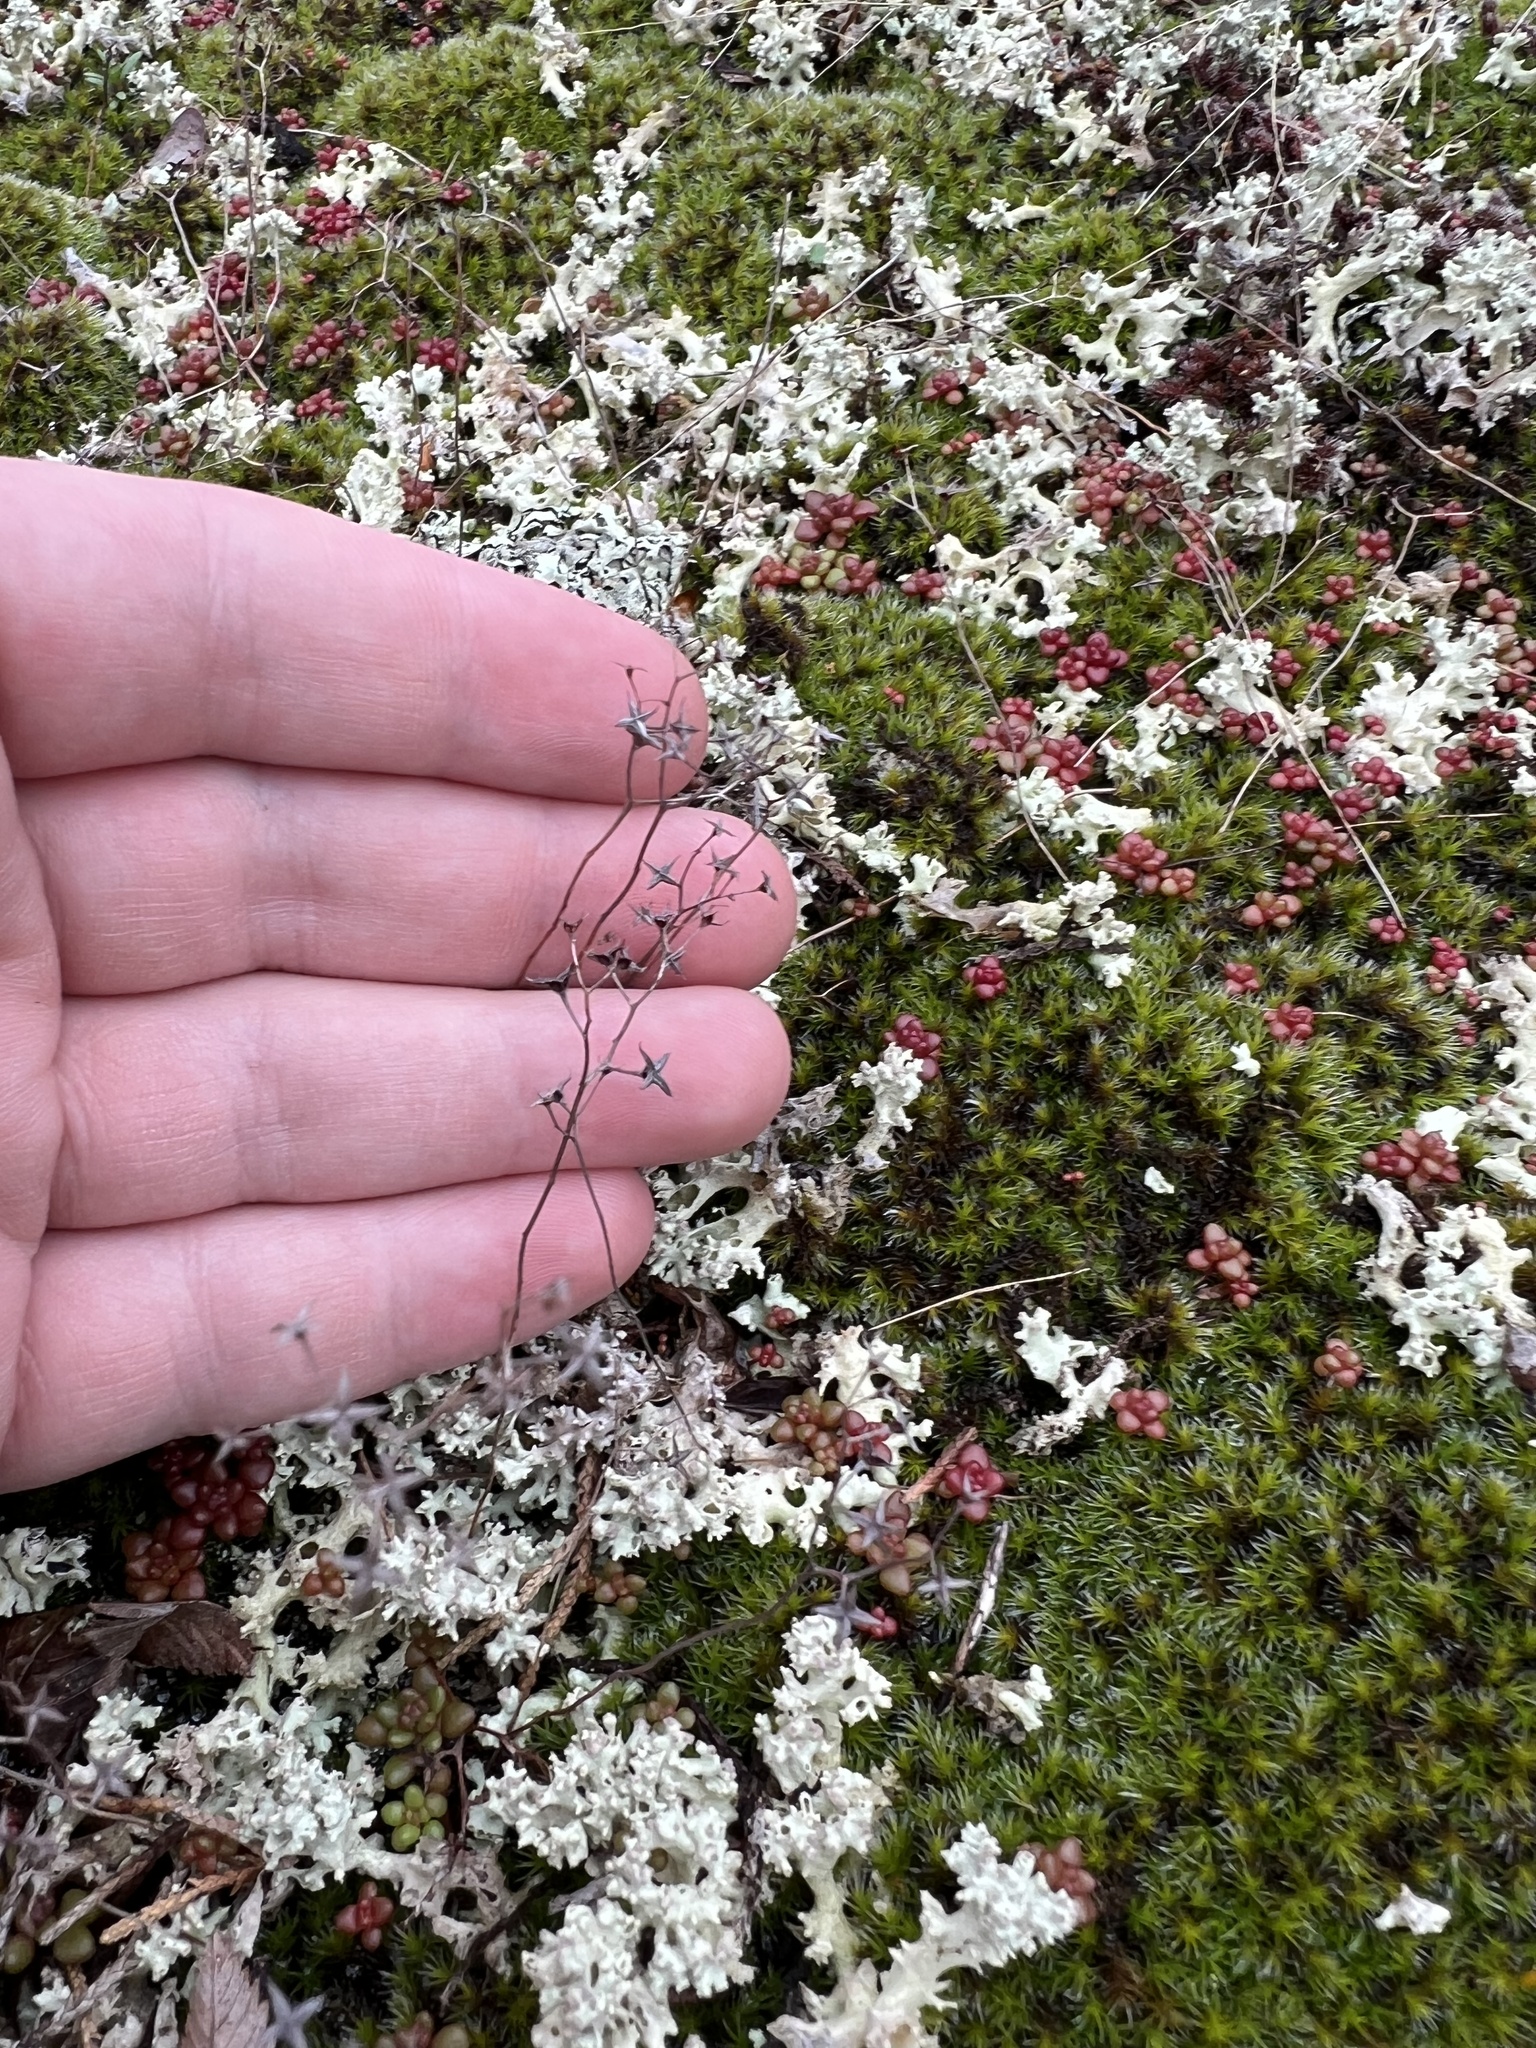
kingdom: Plantae
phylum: Tracheophyta
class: Magnoliopsida
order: Saxifragales
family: Crassulaceae
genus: Sedum
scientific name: Sedum smallii
